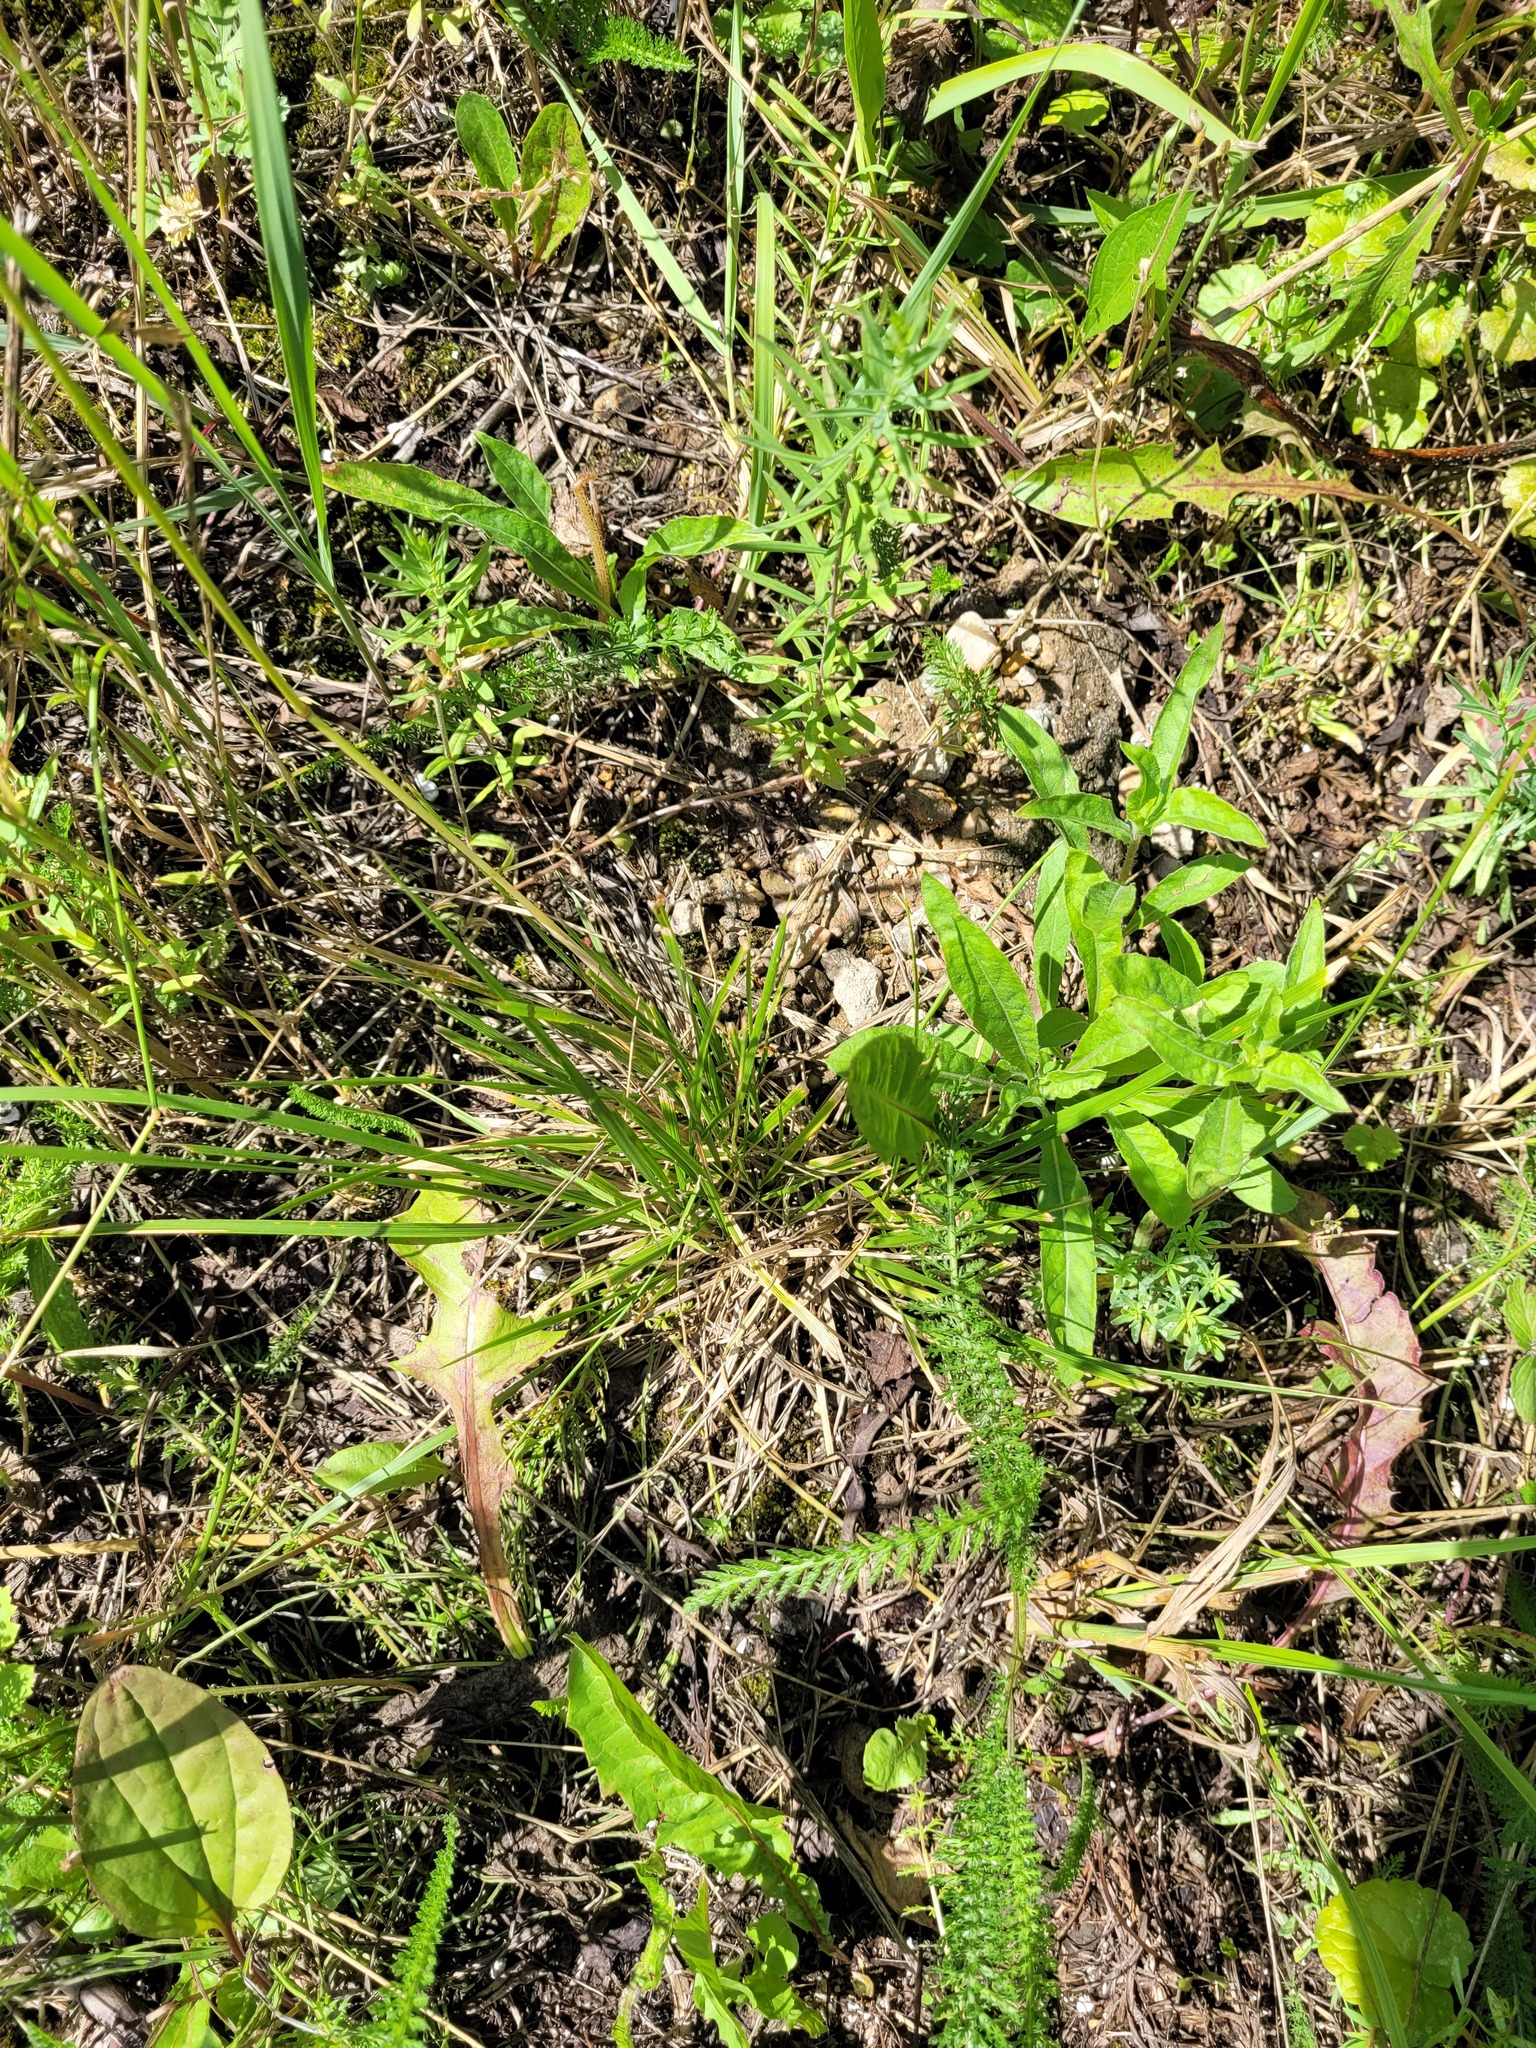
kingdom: Plantae
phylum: Tracheophyta
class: Liliopsida
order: Poales
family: Poaceae
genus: Deschampsia
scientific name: Deschampsia cespitosa
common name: Tufted hair-grass
